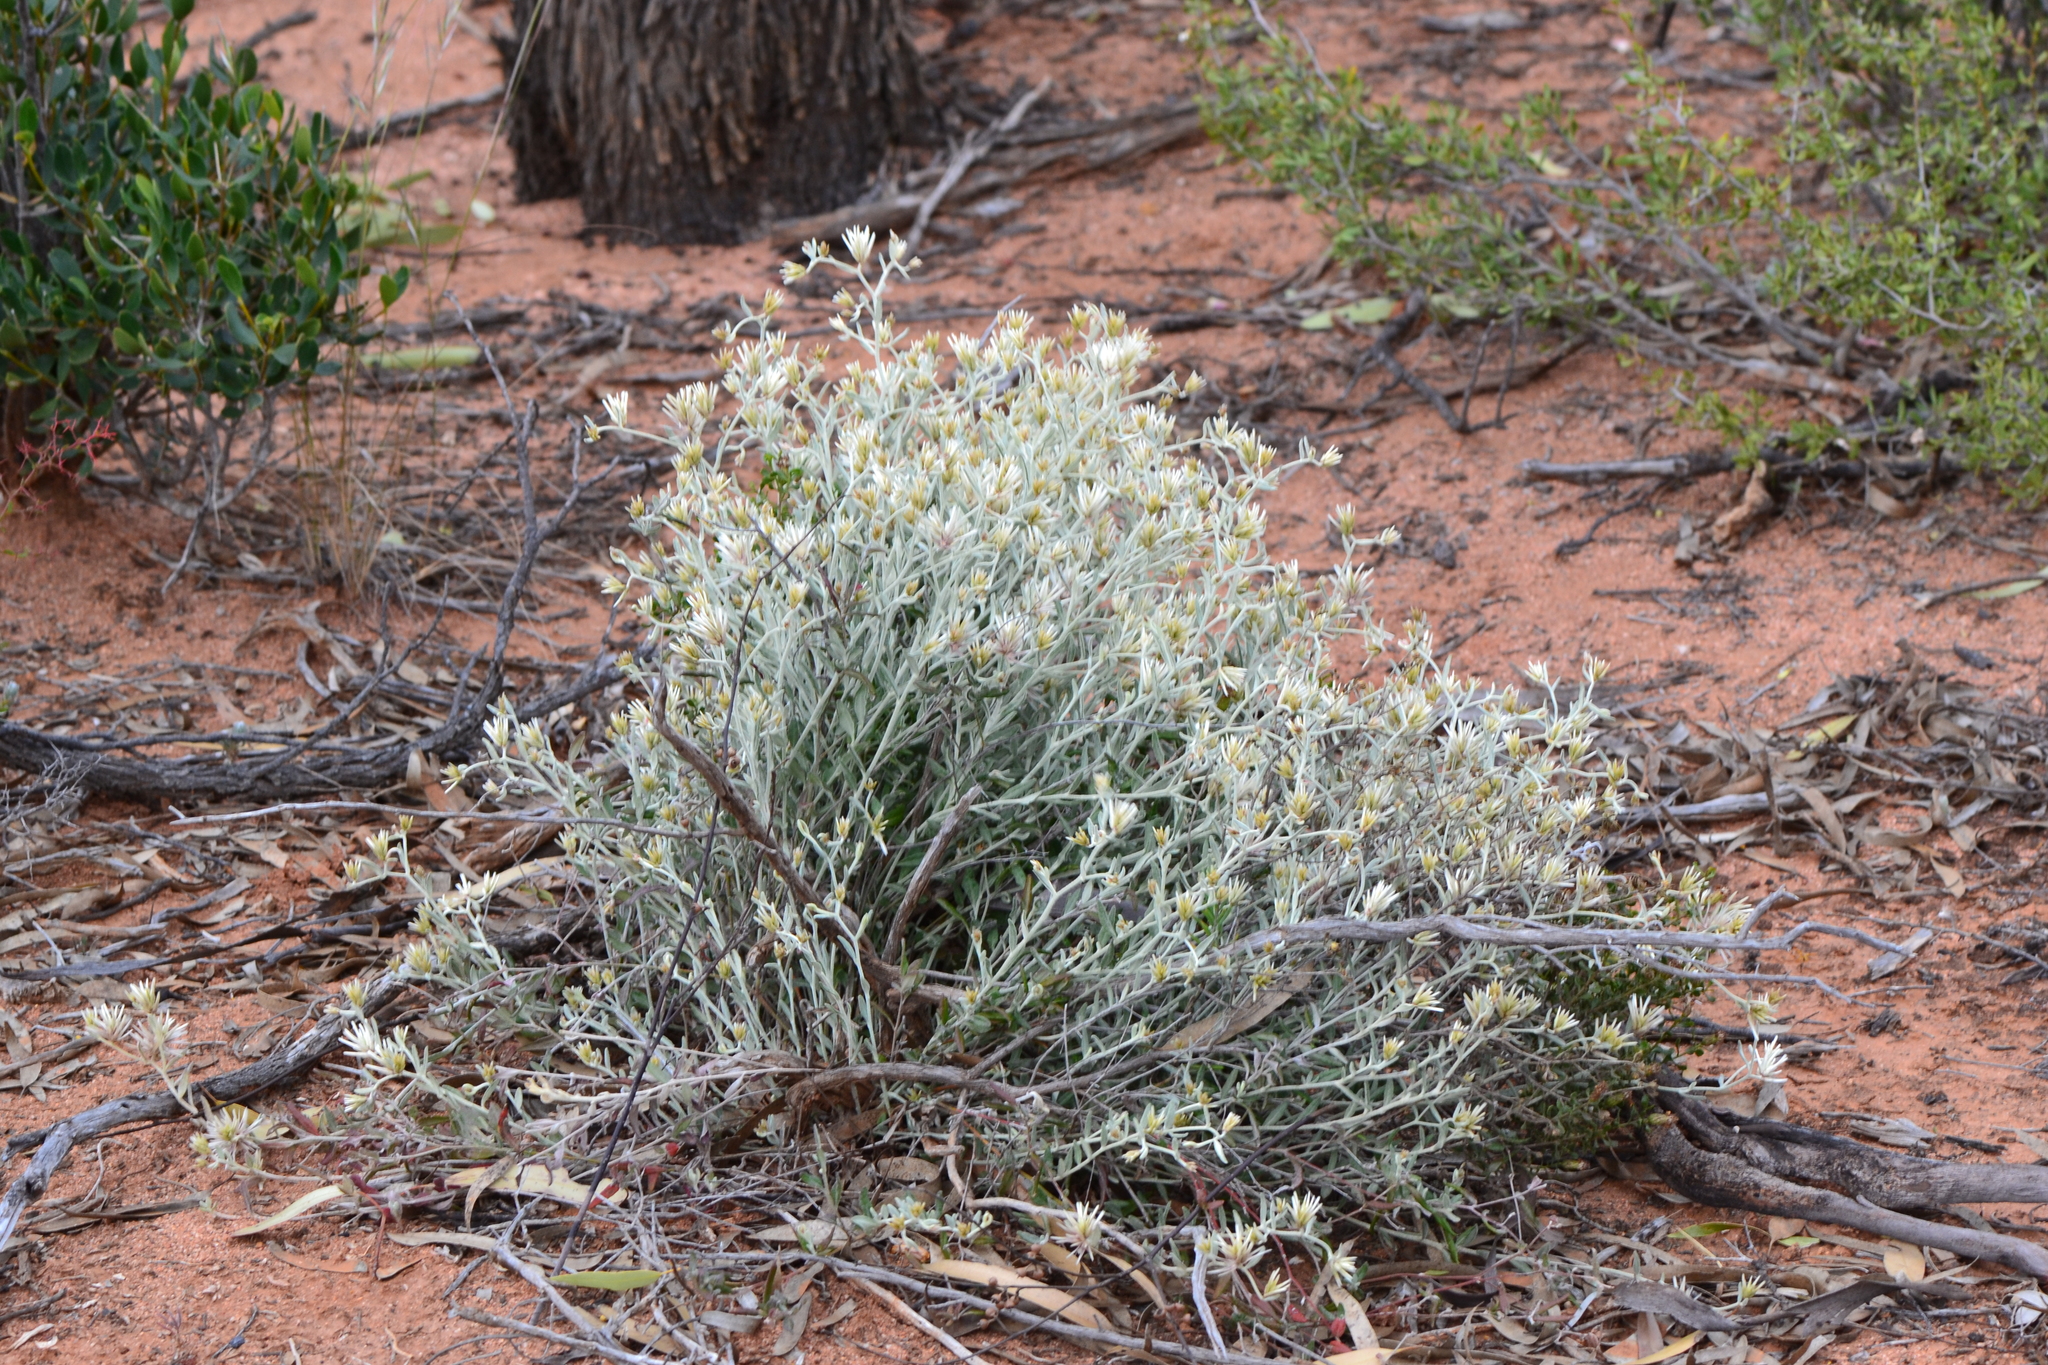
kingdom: Plantae
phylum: Tracheophyta
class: Magnoliopsida
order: Caryophyllales
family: Amaranthaceae
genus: Ptilotus
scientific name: Ptilotus eriotrichus
